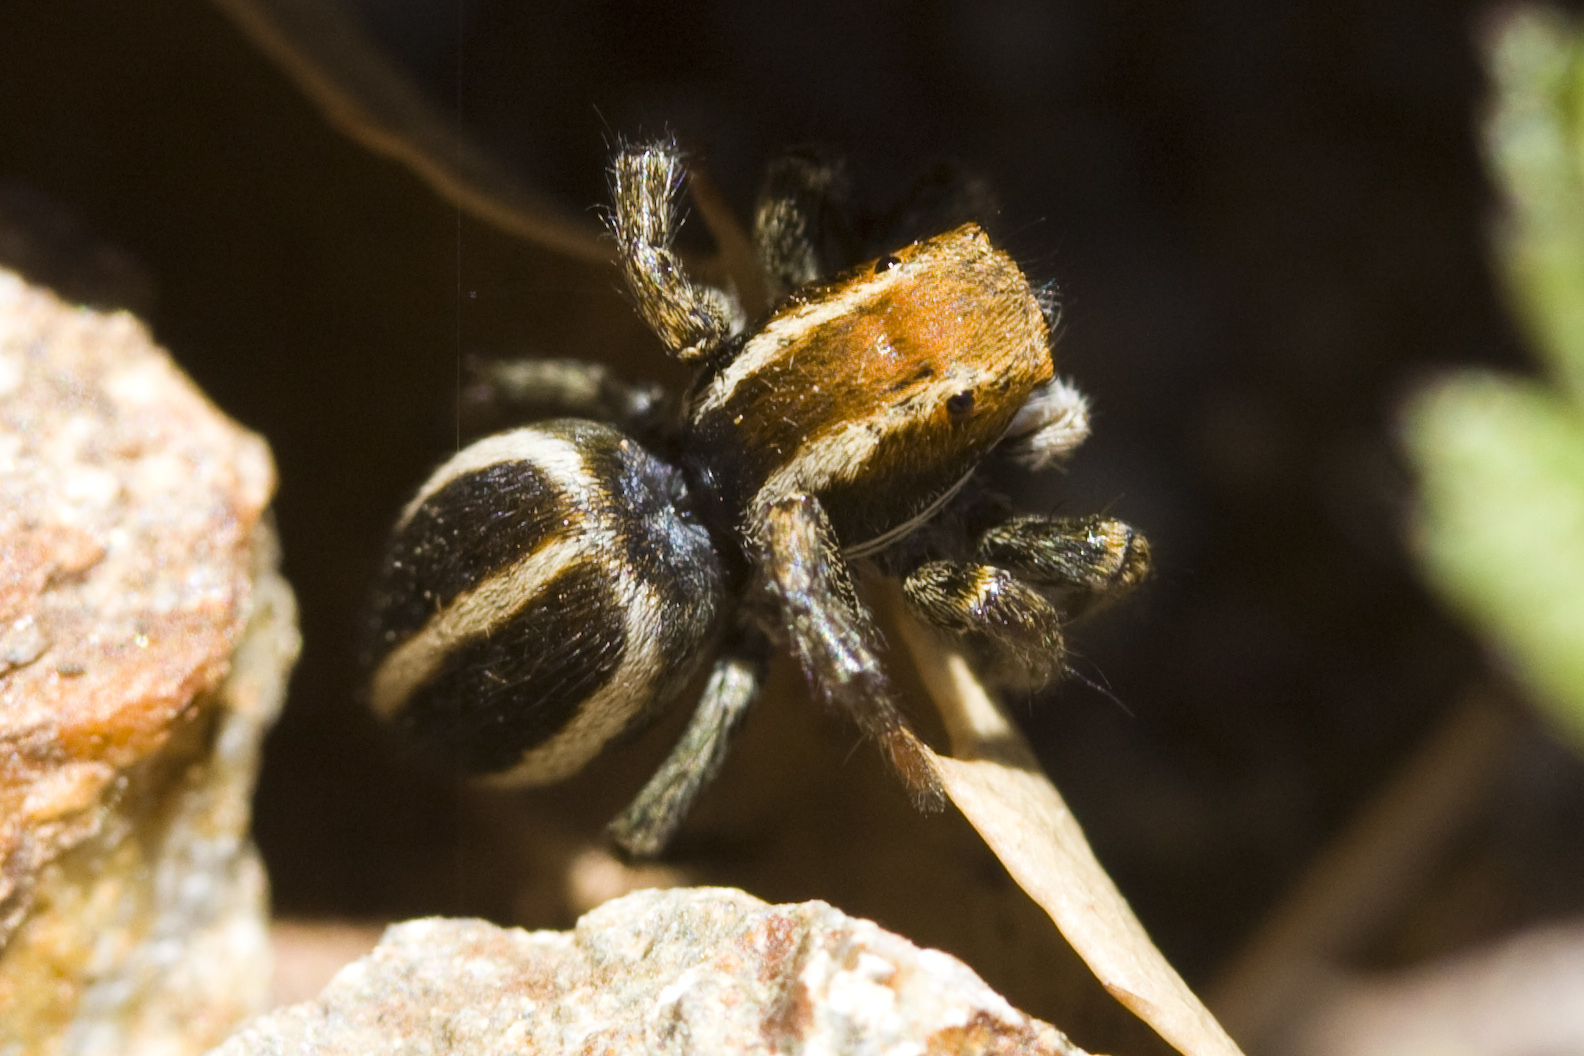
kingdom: Animalia
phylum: Arthropoda
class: Arachnida
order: Araneae
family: Salticidae
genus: Phlegra
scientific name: Phlegra hentzi
